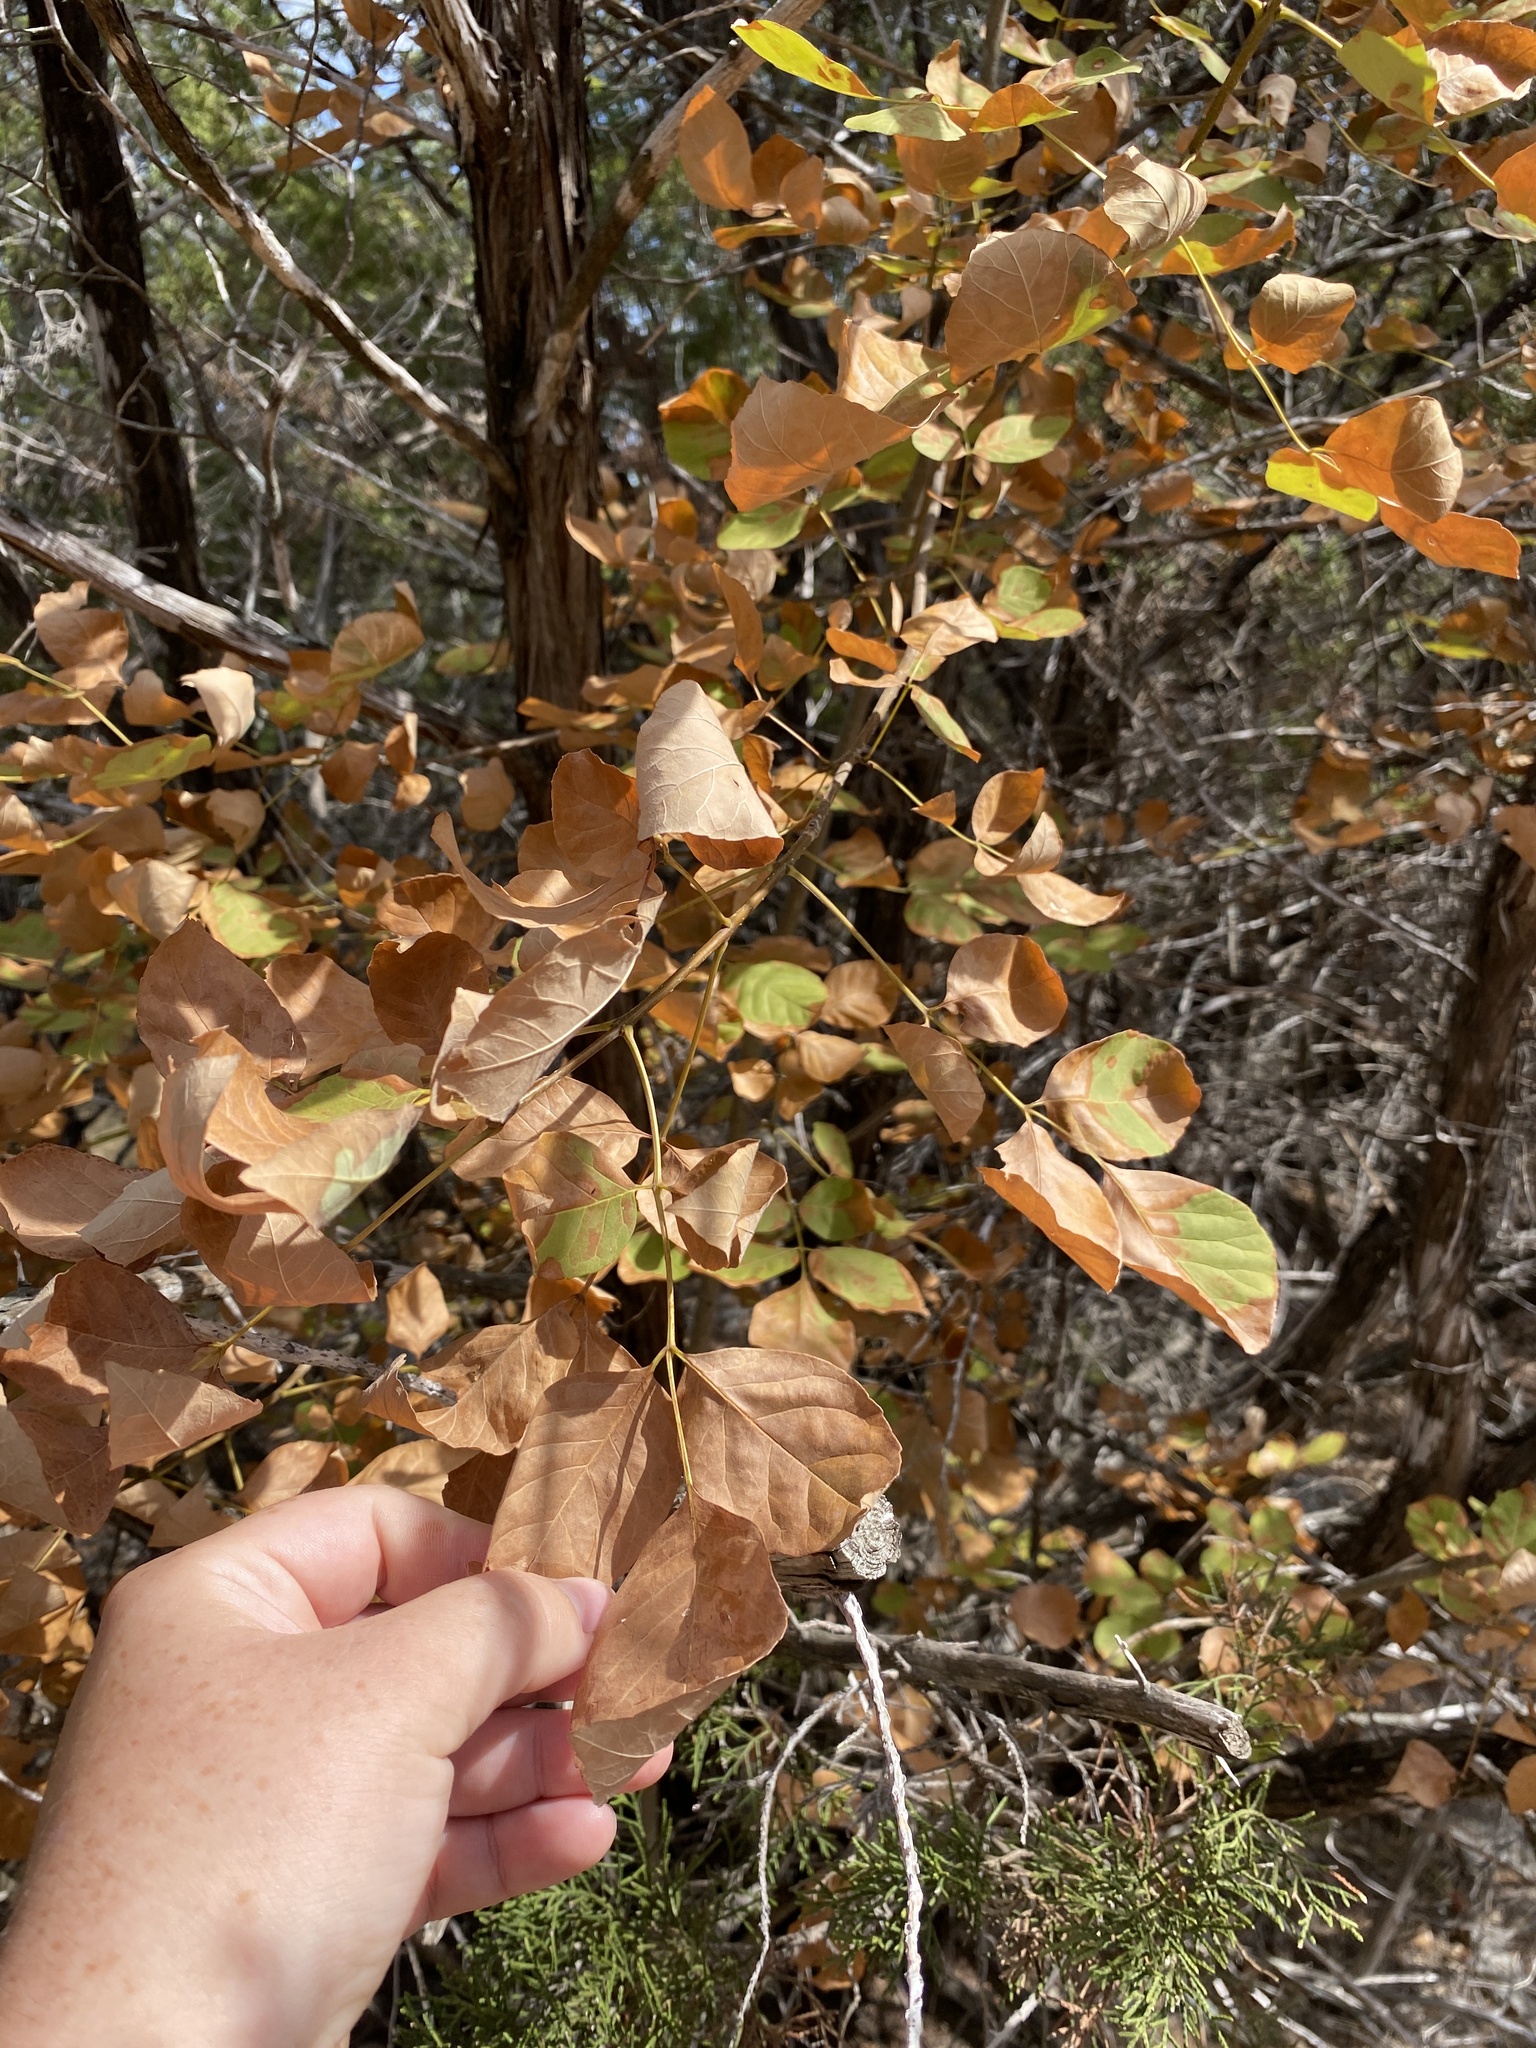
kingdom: Plantae
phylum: Tracheophyta
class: Magnoliopsida
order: Lamiales
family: Oleaceae
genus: Fraxinus
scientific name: Fraxinus albicans
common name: Texas ash
